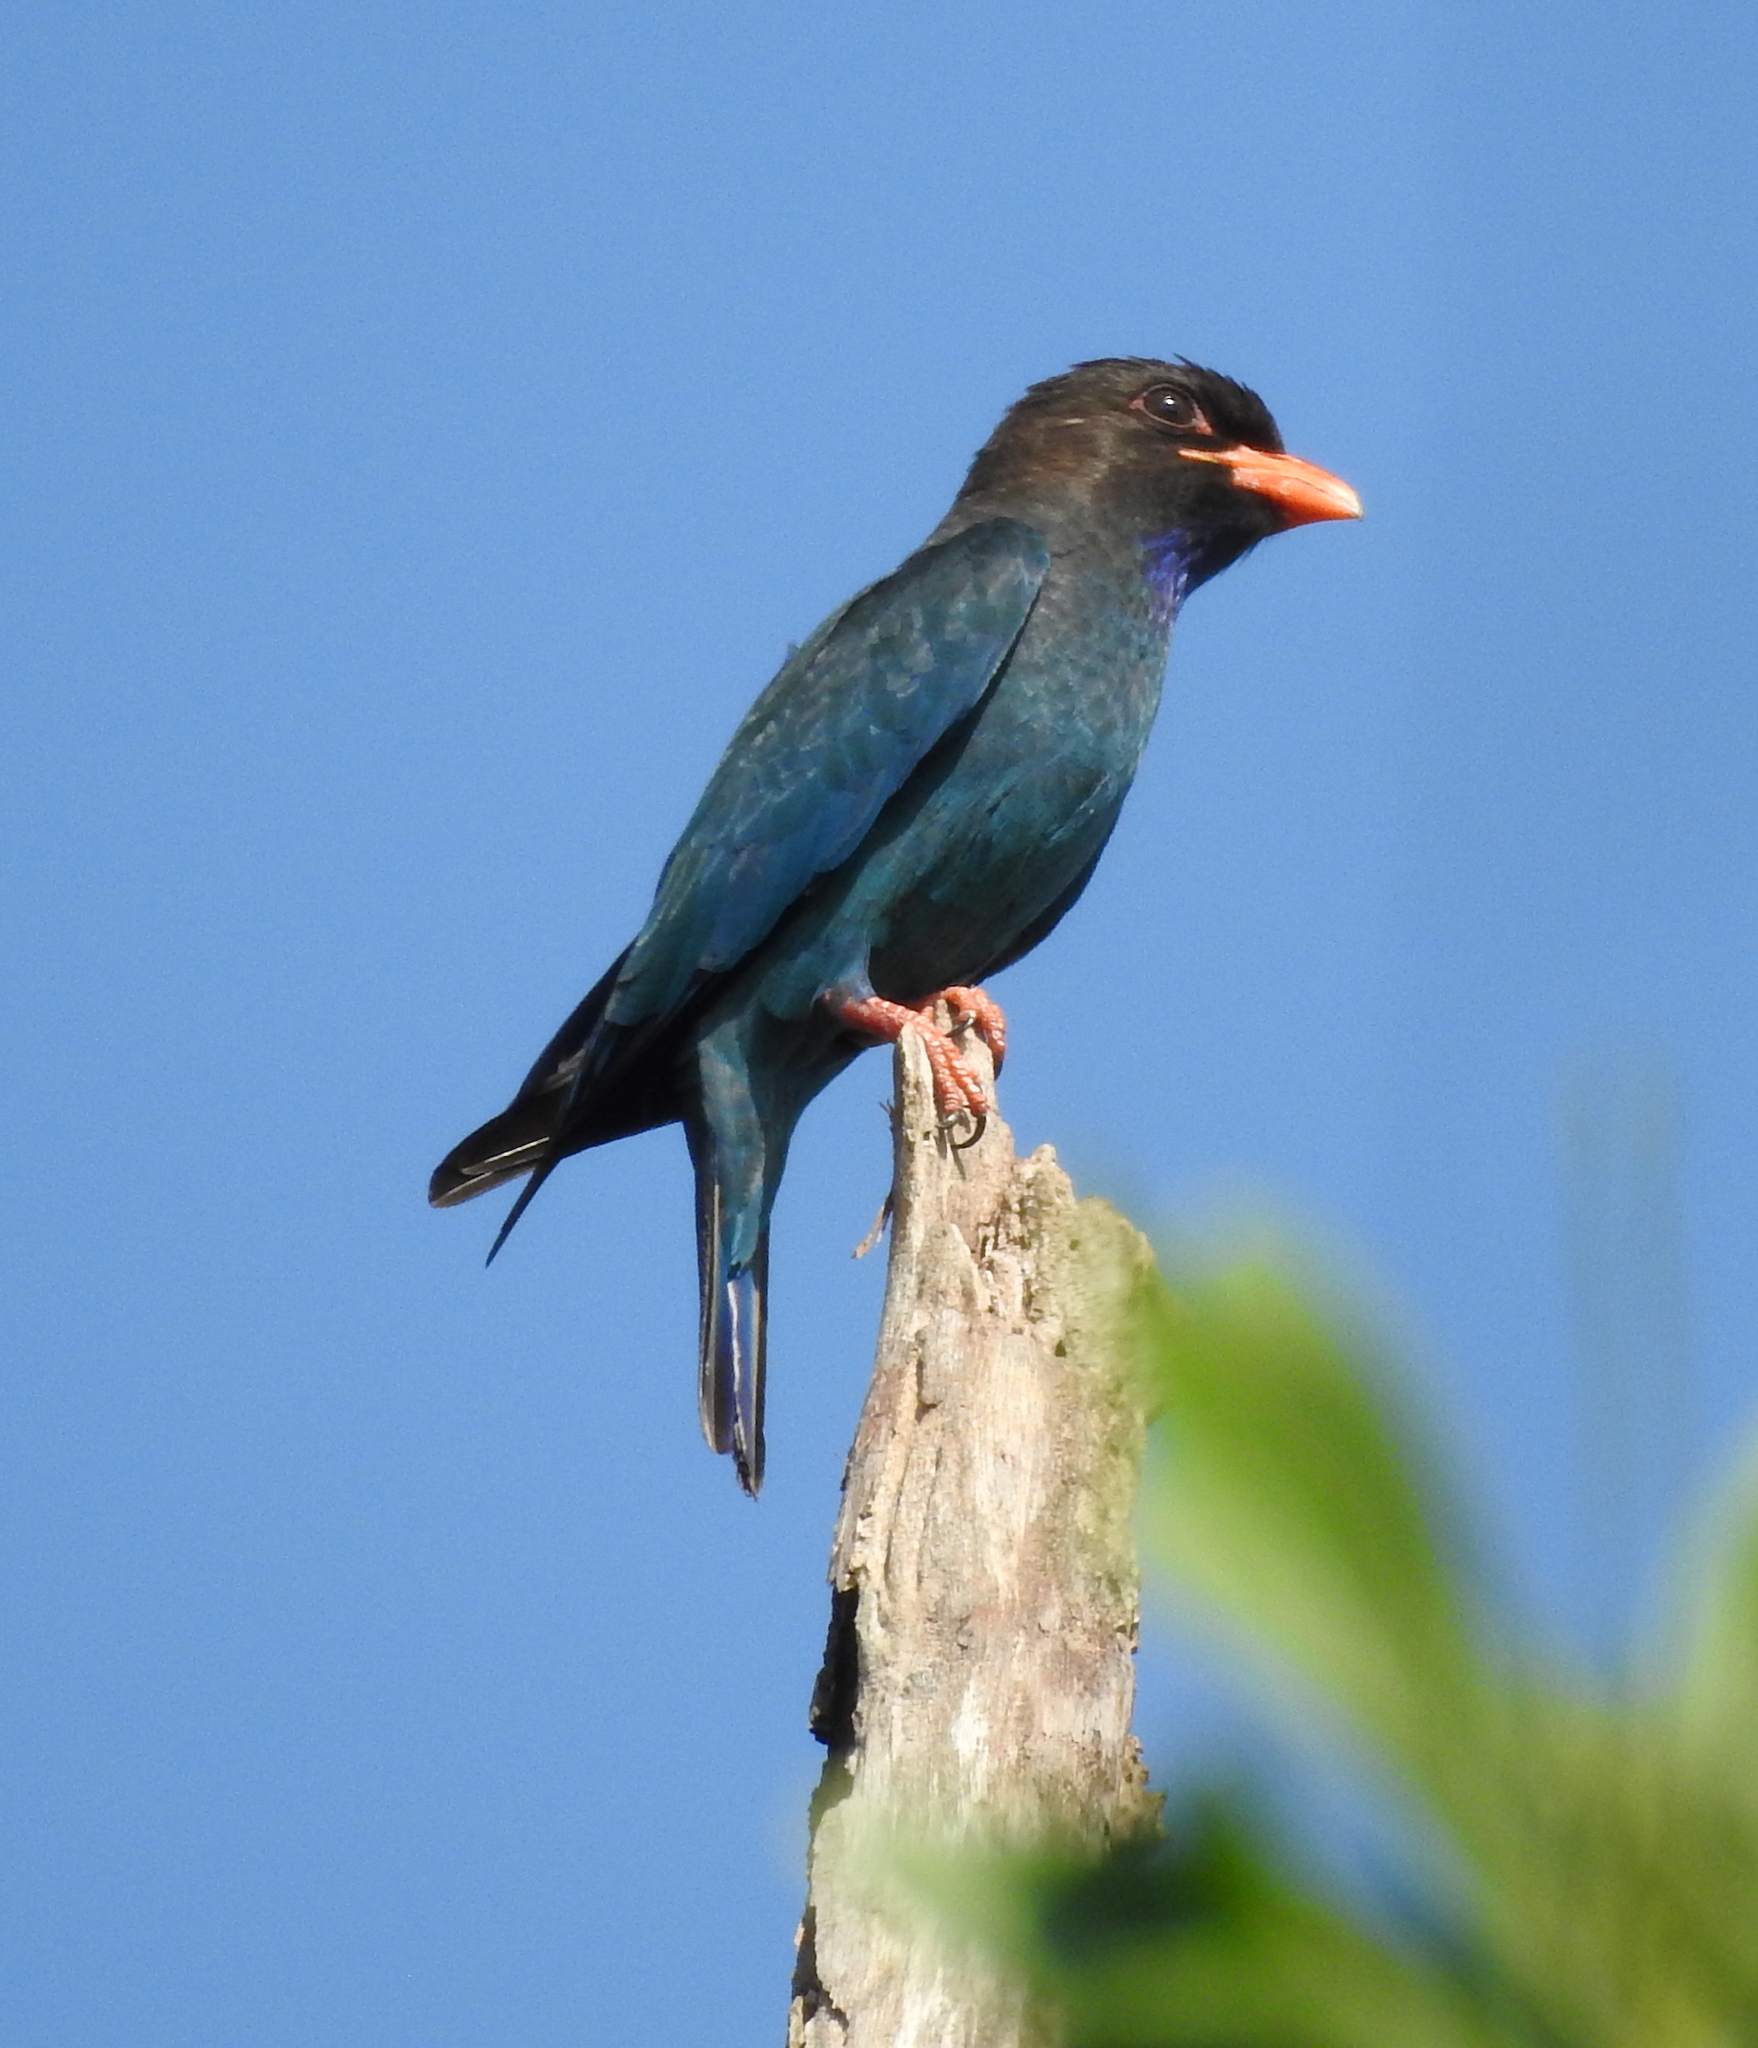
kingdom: Animalia
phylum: Chordata
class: Aves
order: Coraciiformes
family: Coraciidae
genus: Eurystomus
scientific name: Eurystomus orientalis
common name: Oriental dollarbird
